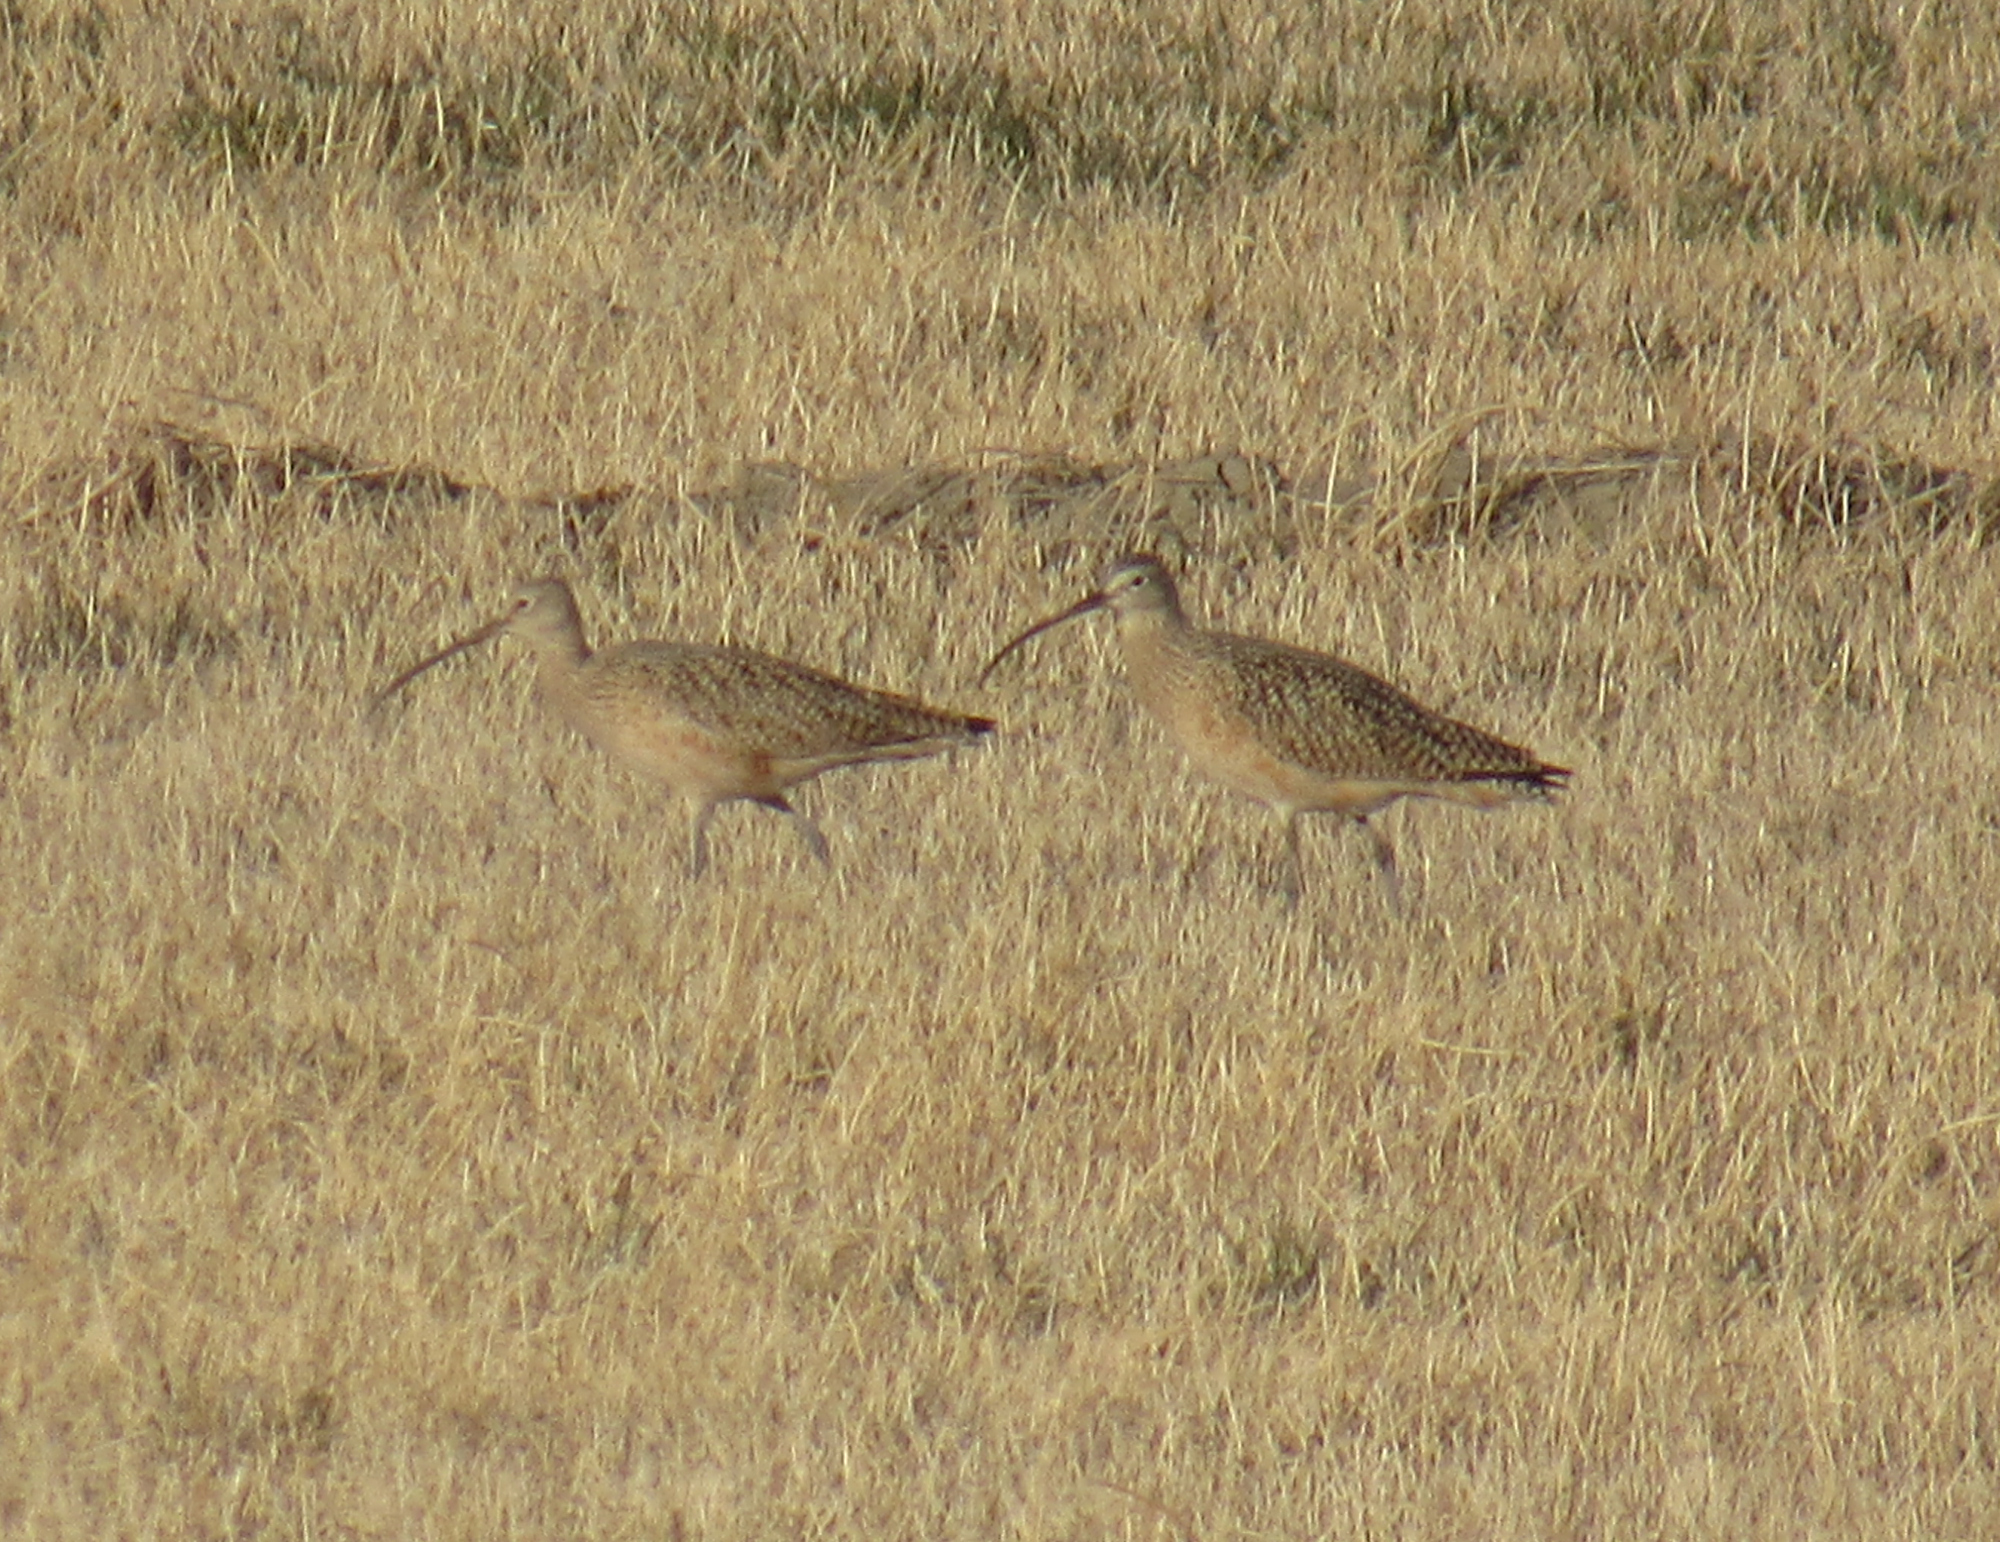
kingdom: Animalia
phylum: Chordata
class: Aves
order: Charadriiformes
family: Scolopacidae
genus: Numenius
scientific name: Numenius americanus
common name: Long-billed curlew
